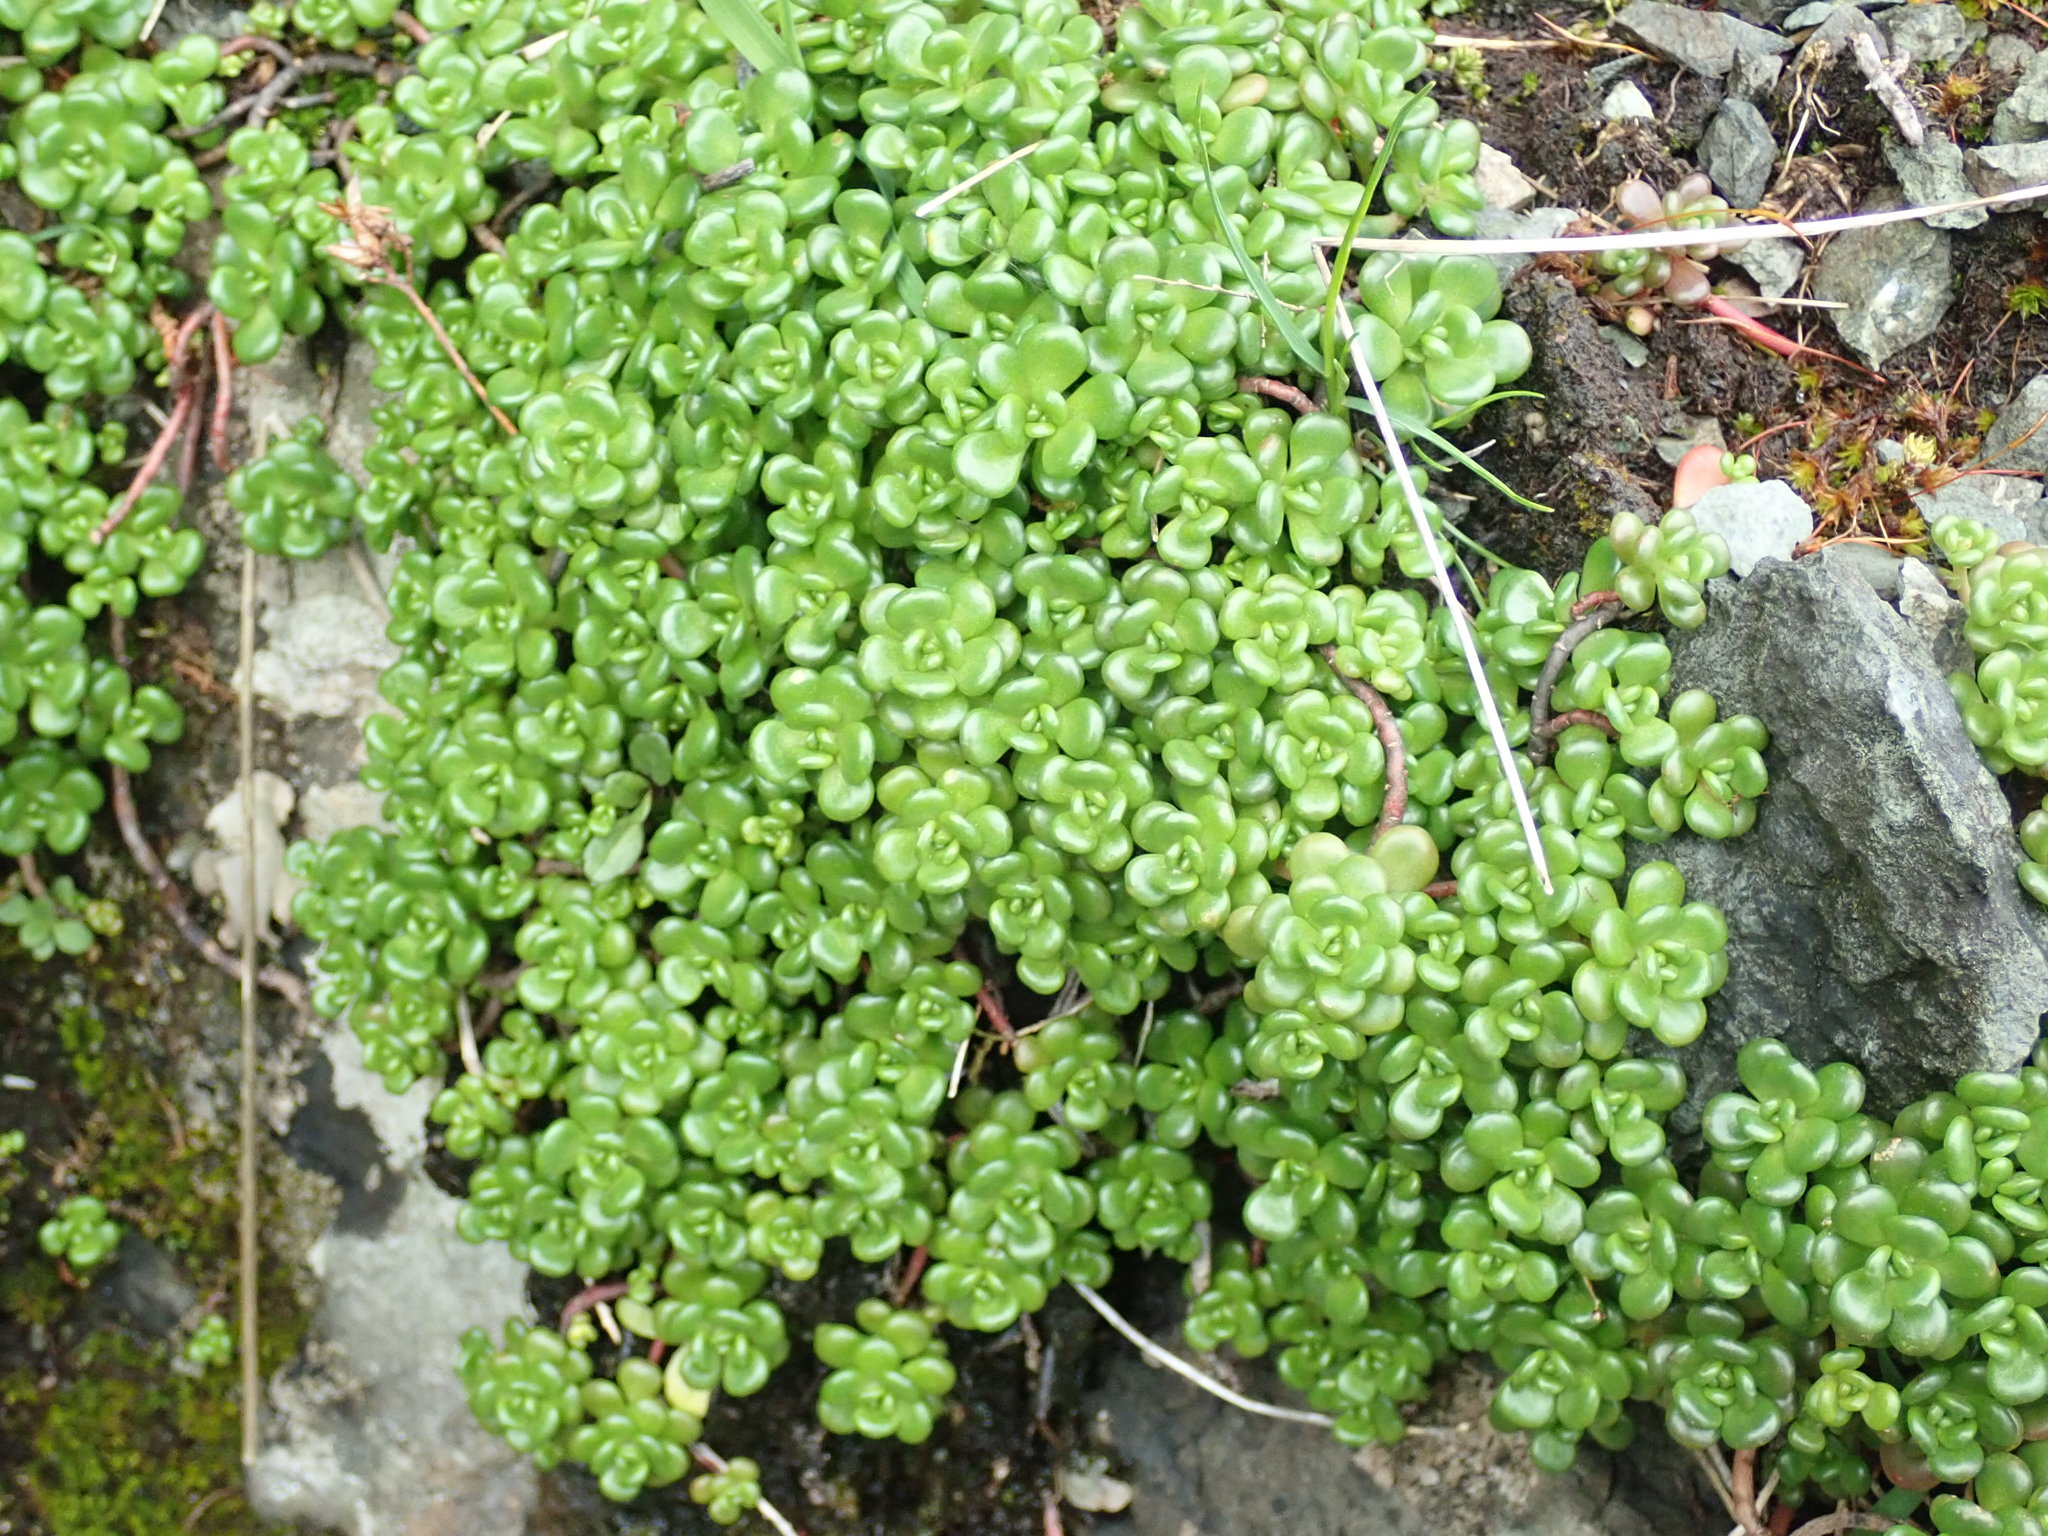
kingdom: Plantae
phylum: Tracheophyta
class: Magnoliopsida
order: Saxifragales
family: Crassulaceae
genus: Sedum
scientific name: Sedum oreganum
